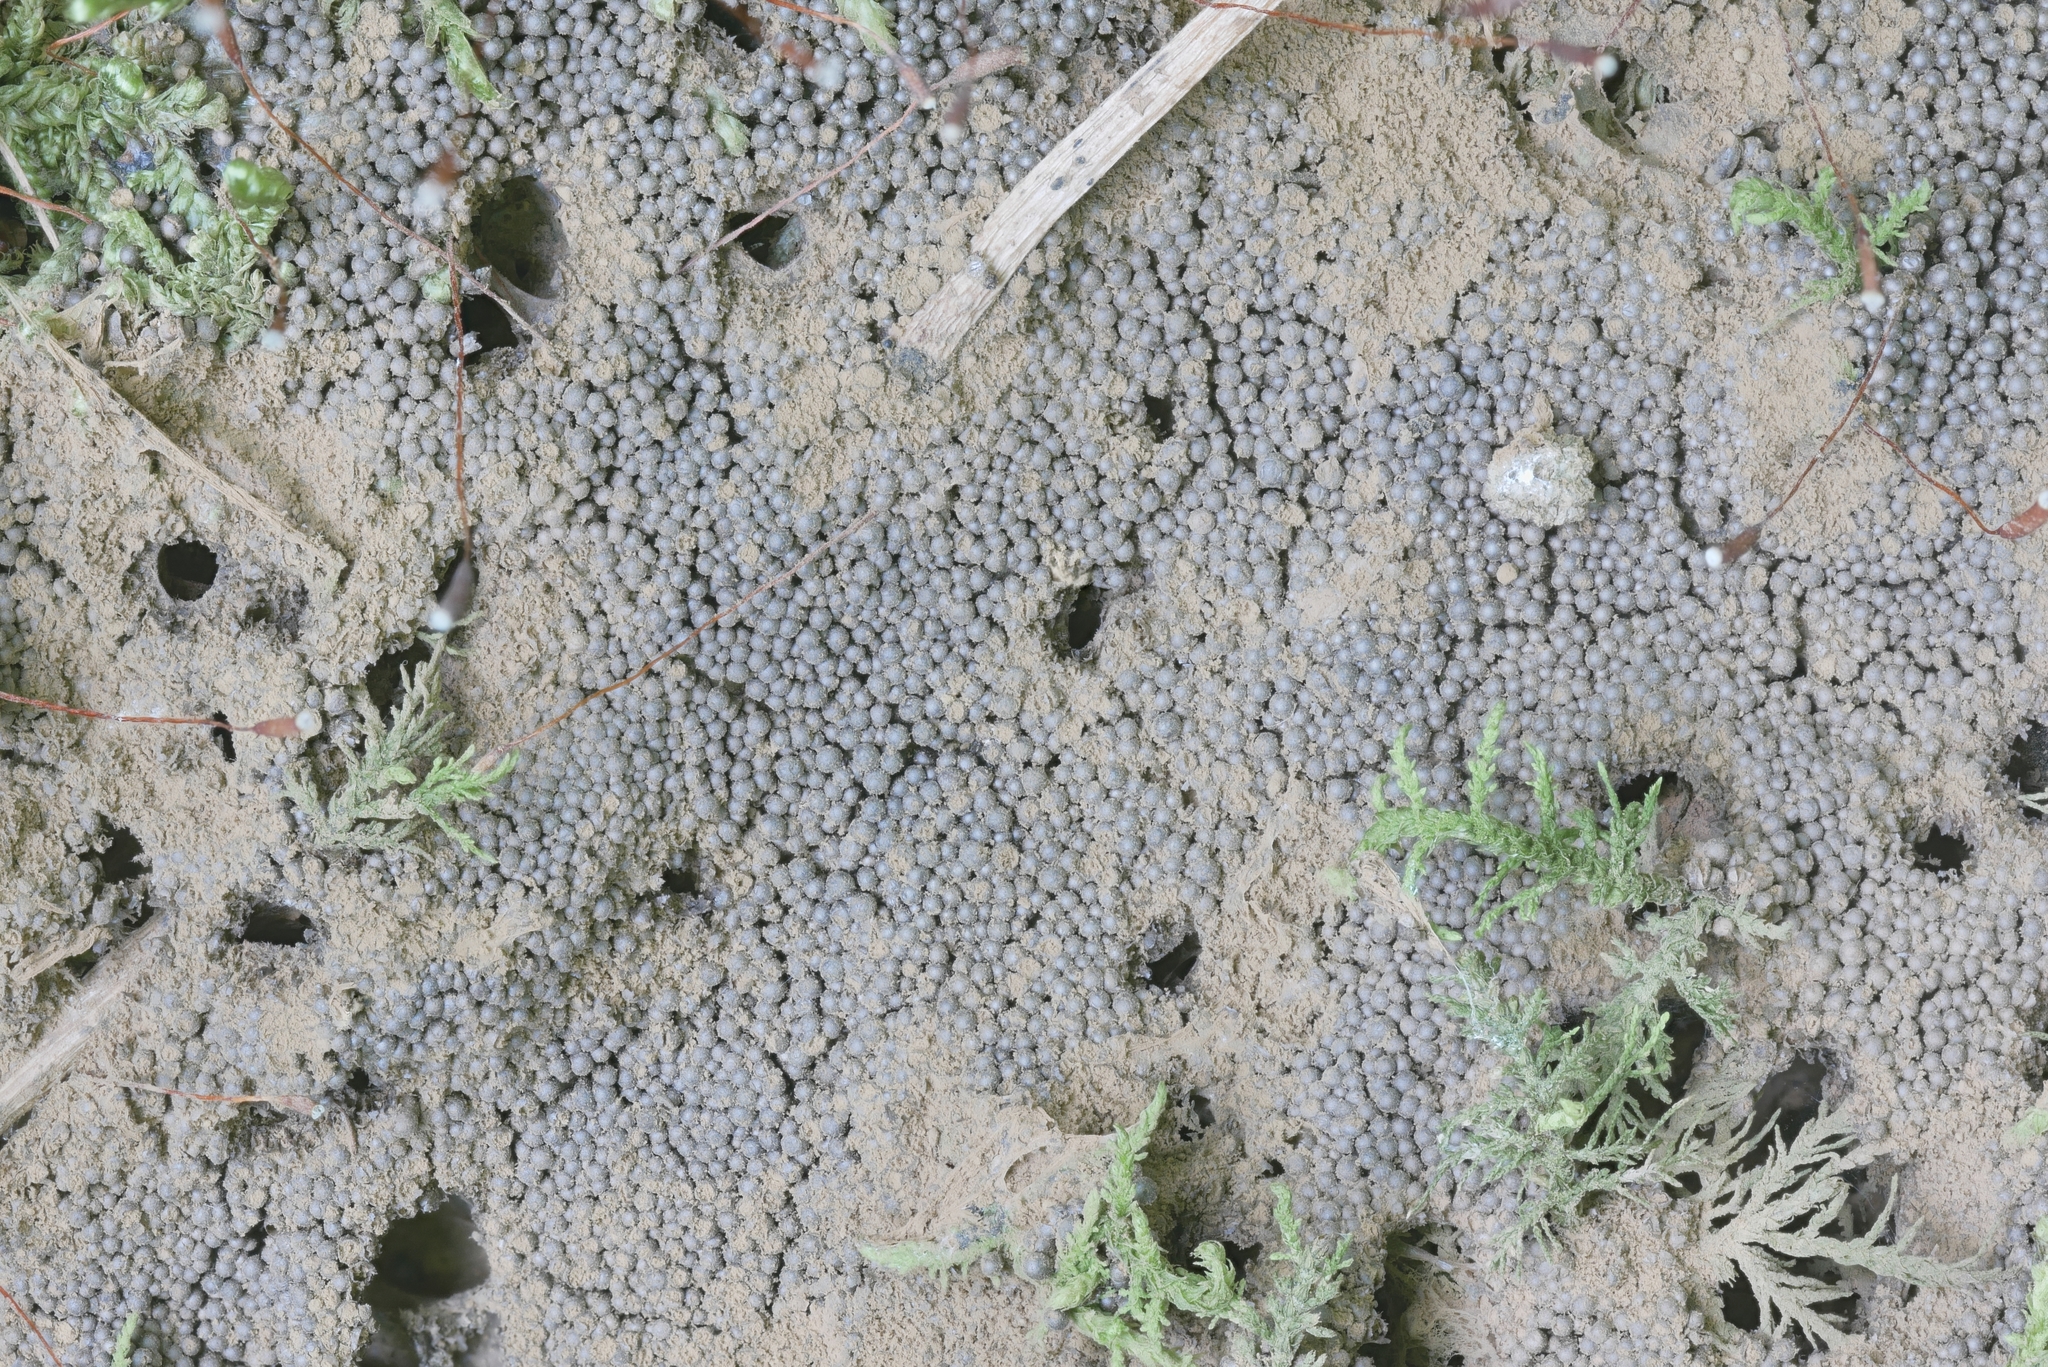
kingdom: Protozoa
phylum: Mycetozoa
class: Myxomycetes
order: Cribrariales
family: Cribrariaceae
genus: Lindbladia
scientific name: Lindbladia tubulina
